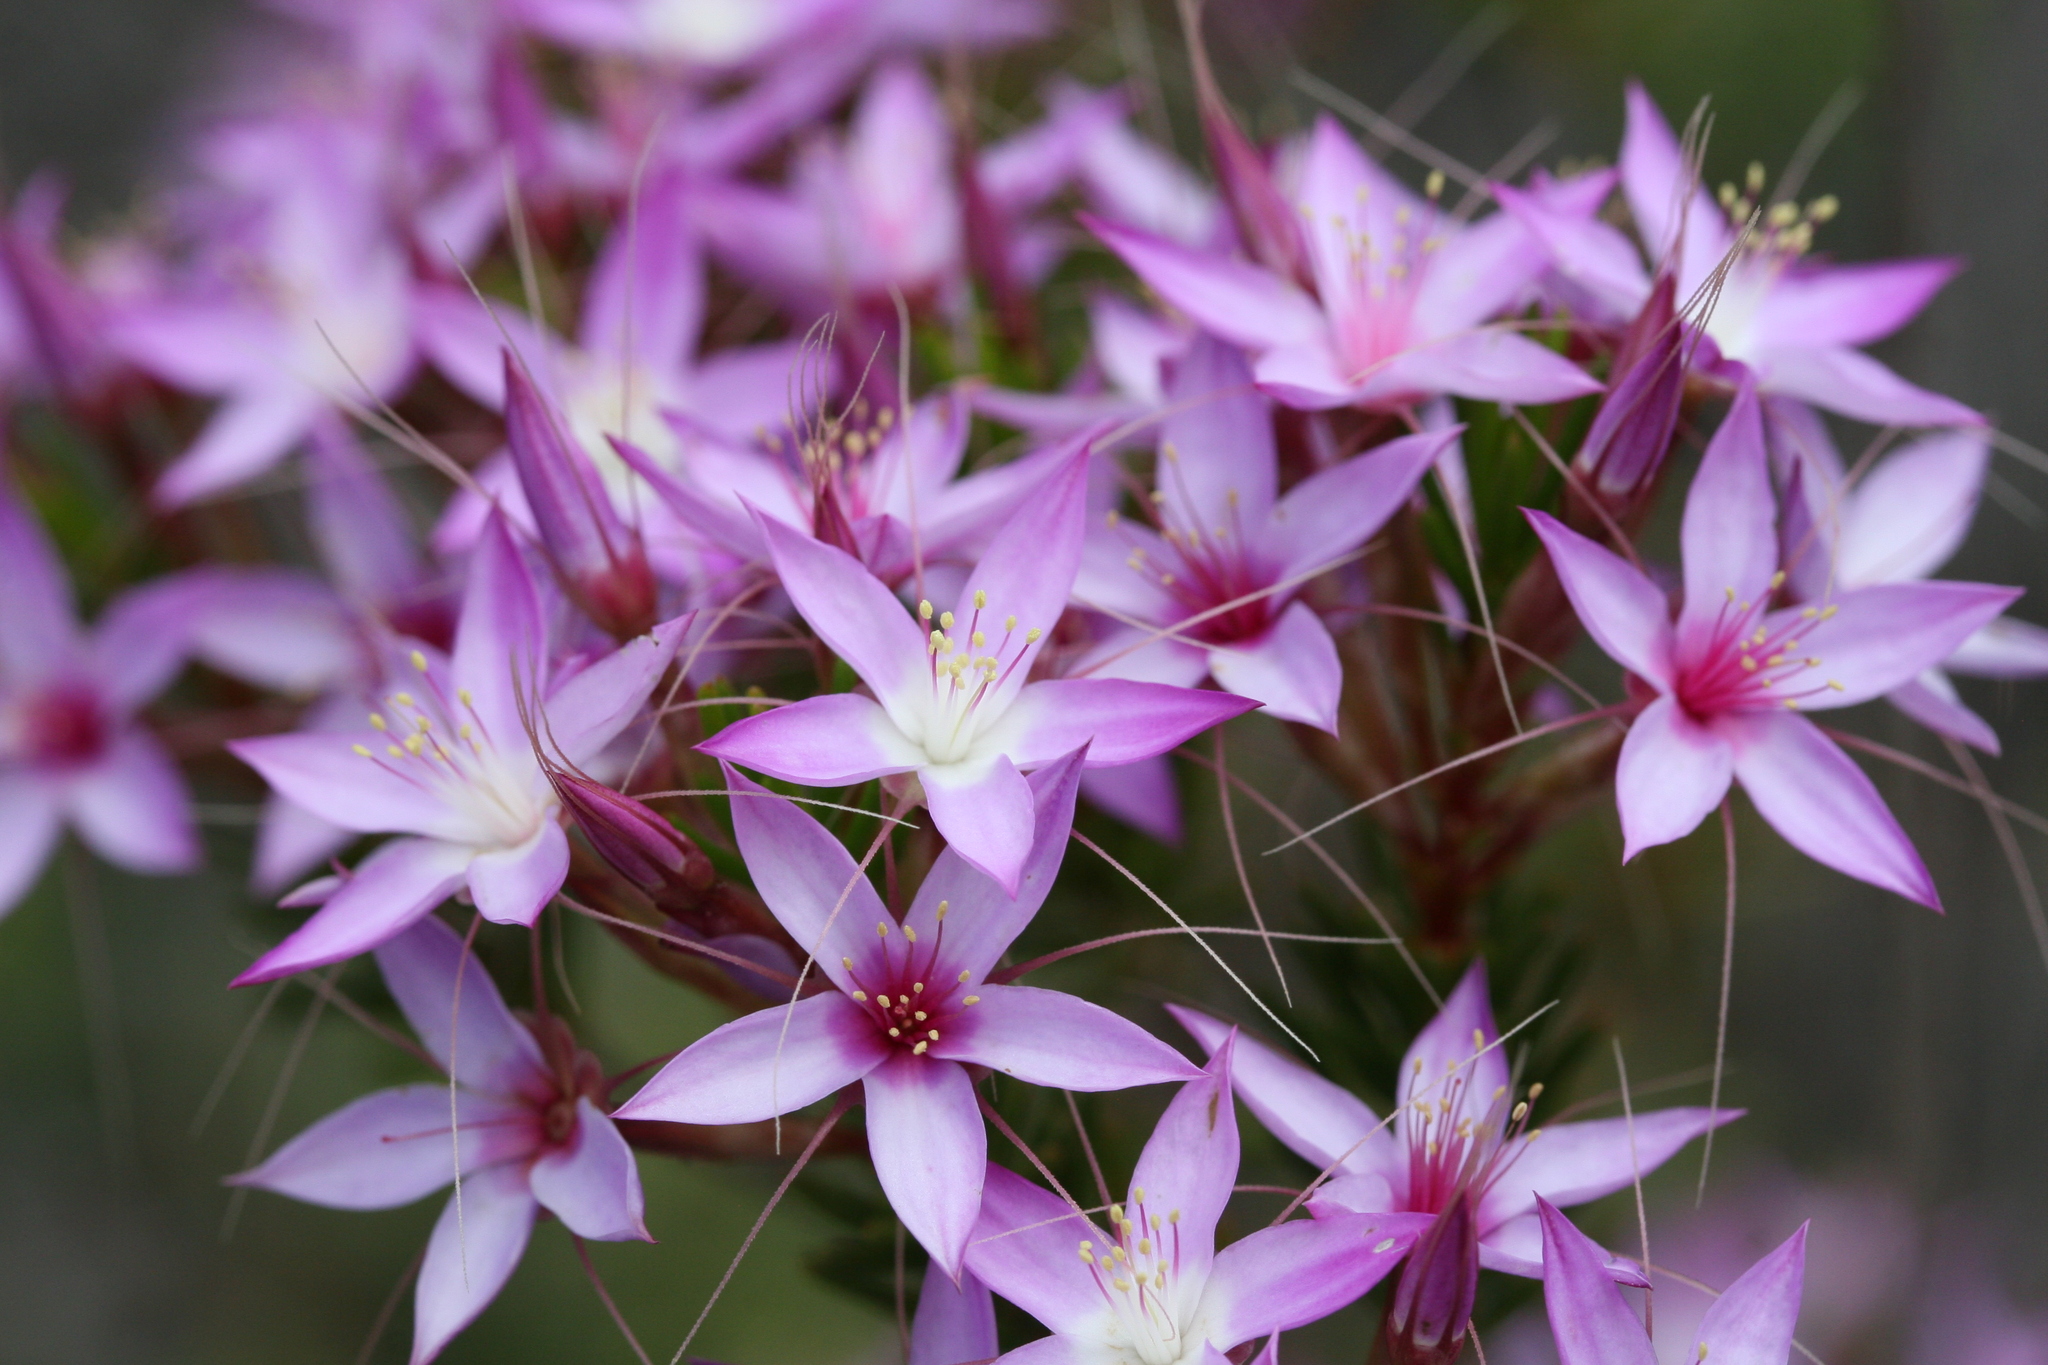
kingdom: Plantae
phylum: Tracheophyta
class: Magnoliopsida
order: Myrtales
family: Myrtaceae
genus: Calytrix
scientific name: Calytrix glutinosa
